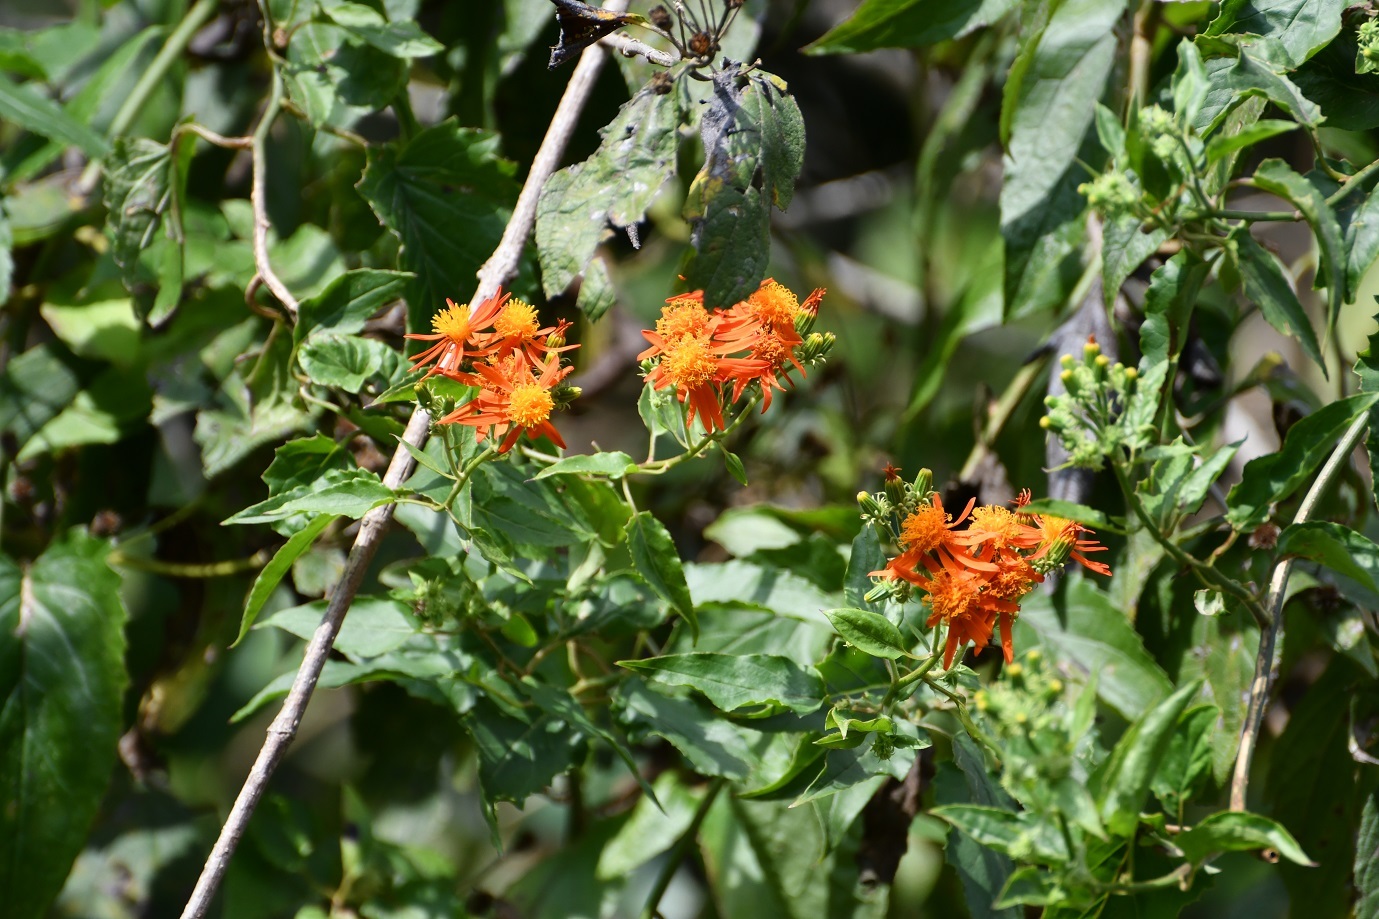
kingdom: Plantae
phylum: Tracheophyta
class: Magnoliopsida
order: Asterales
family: Asteraceae
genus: Pseudogynoxys
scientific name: Pseudogynoxys haenkei
